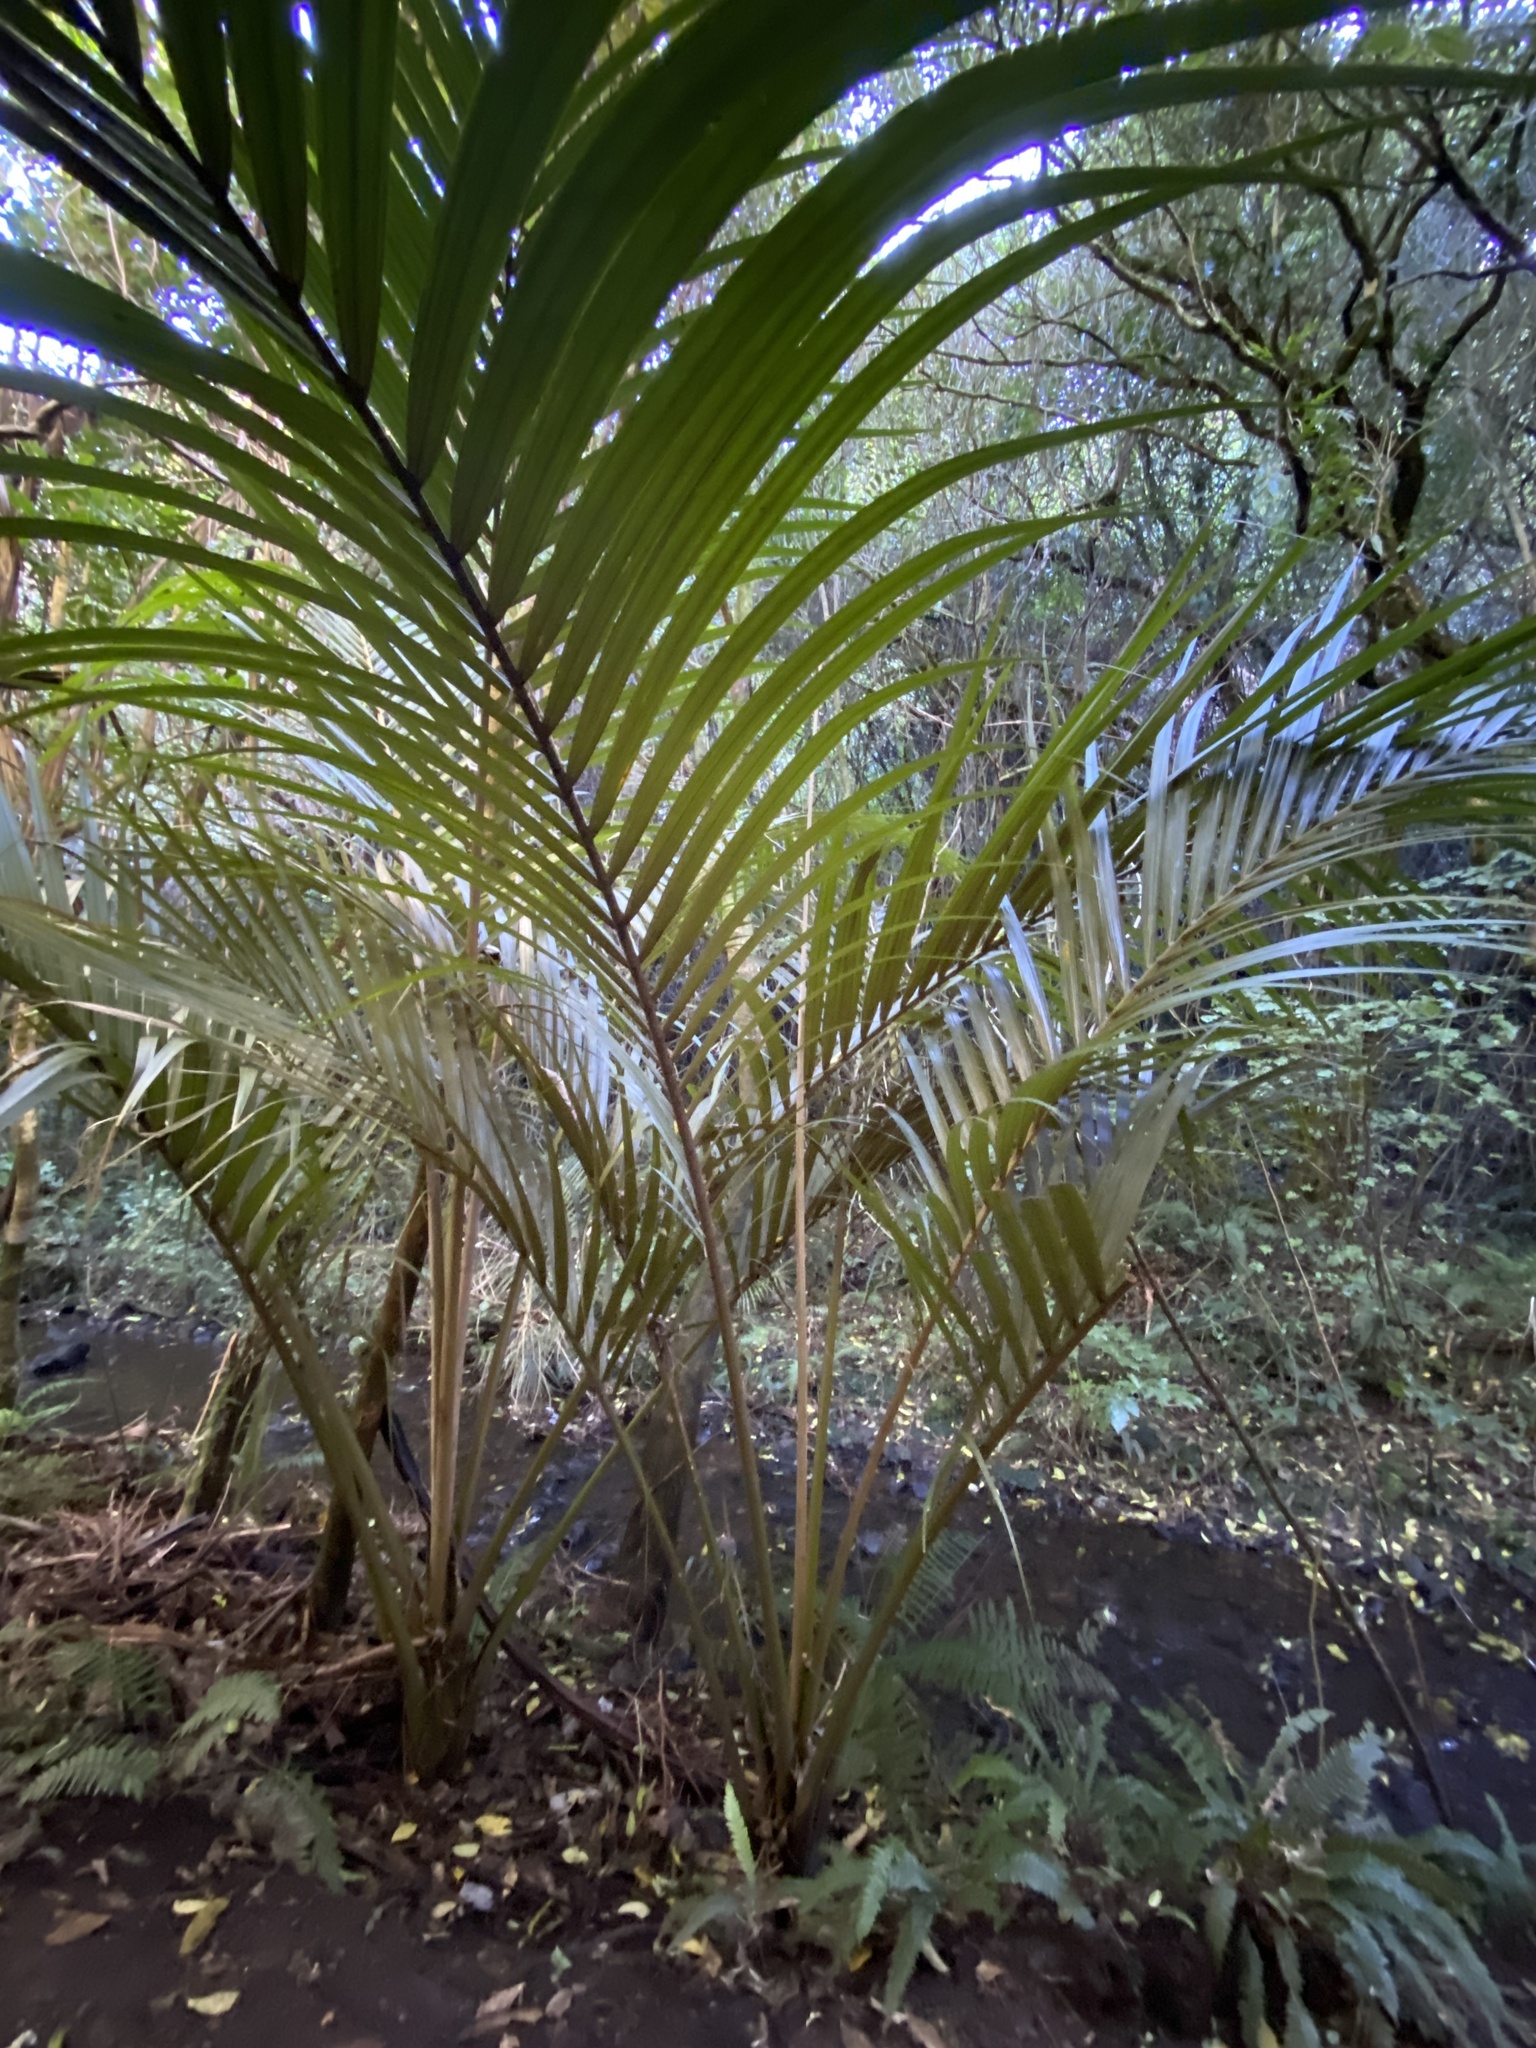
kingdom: Plantae
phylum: Tracheophyta
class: Liliopsida
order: Arecales
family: Arecaceae
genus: Rhopalostylis
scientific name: Rhopalostylis sapida
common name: Feather-duster palm
